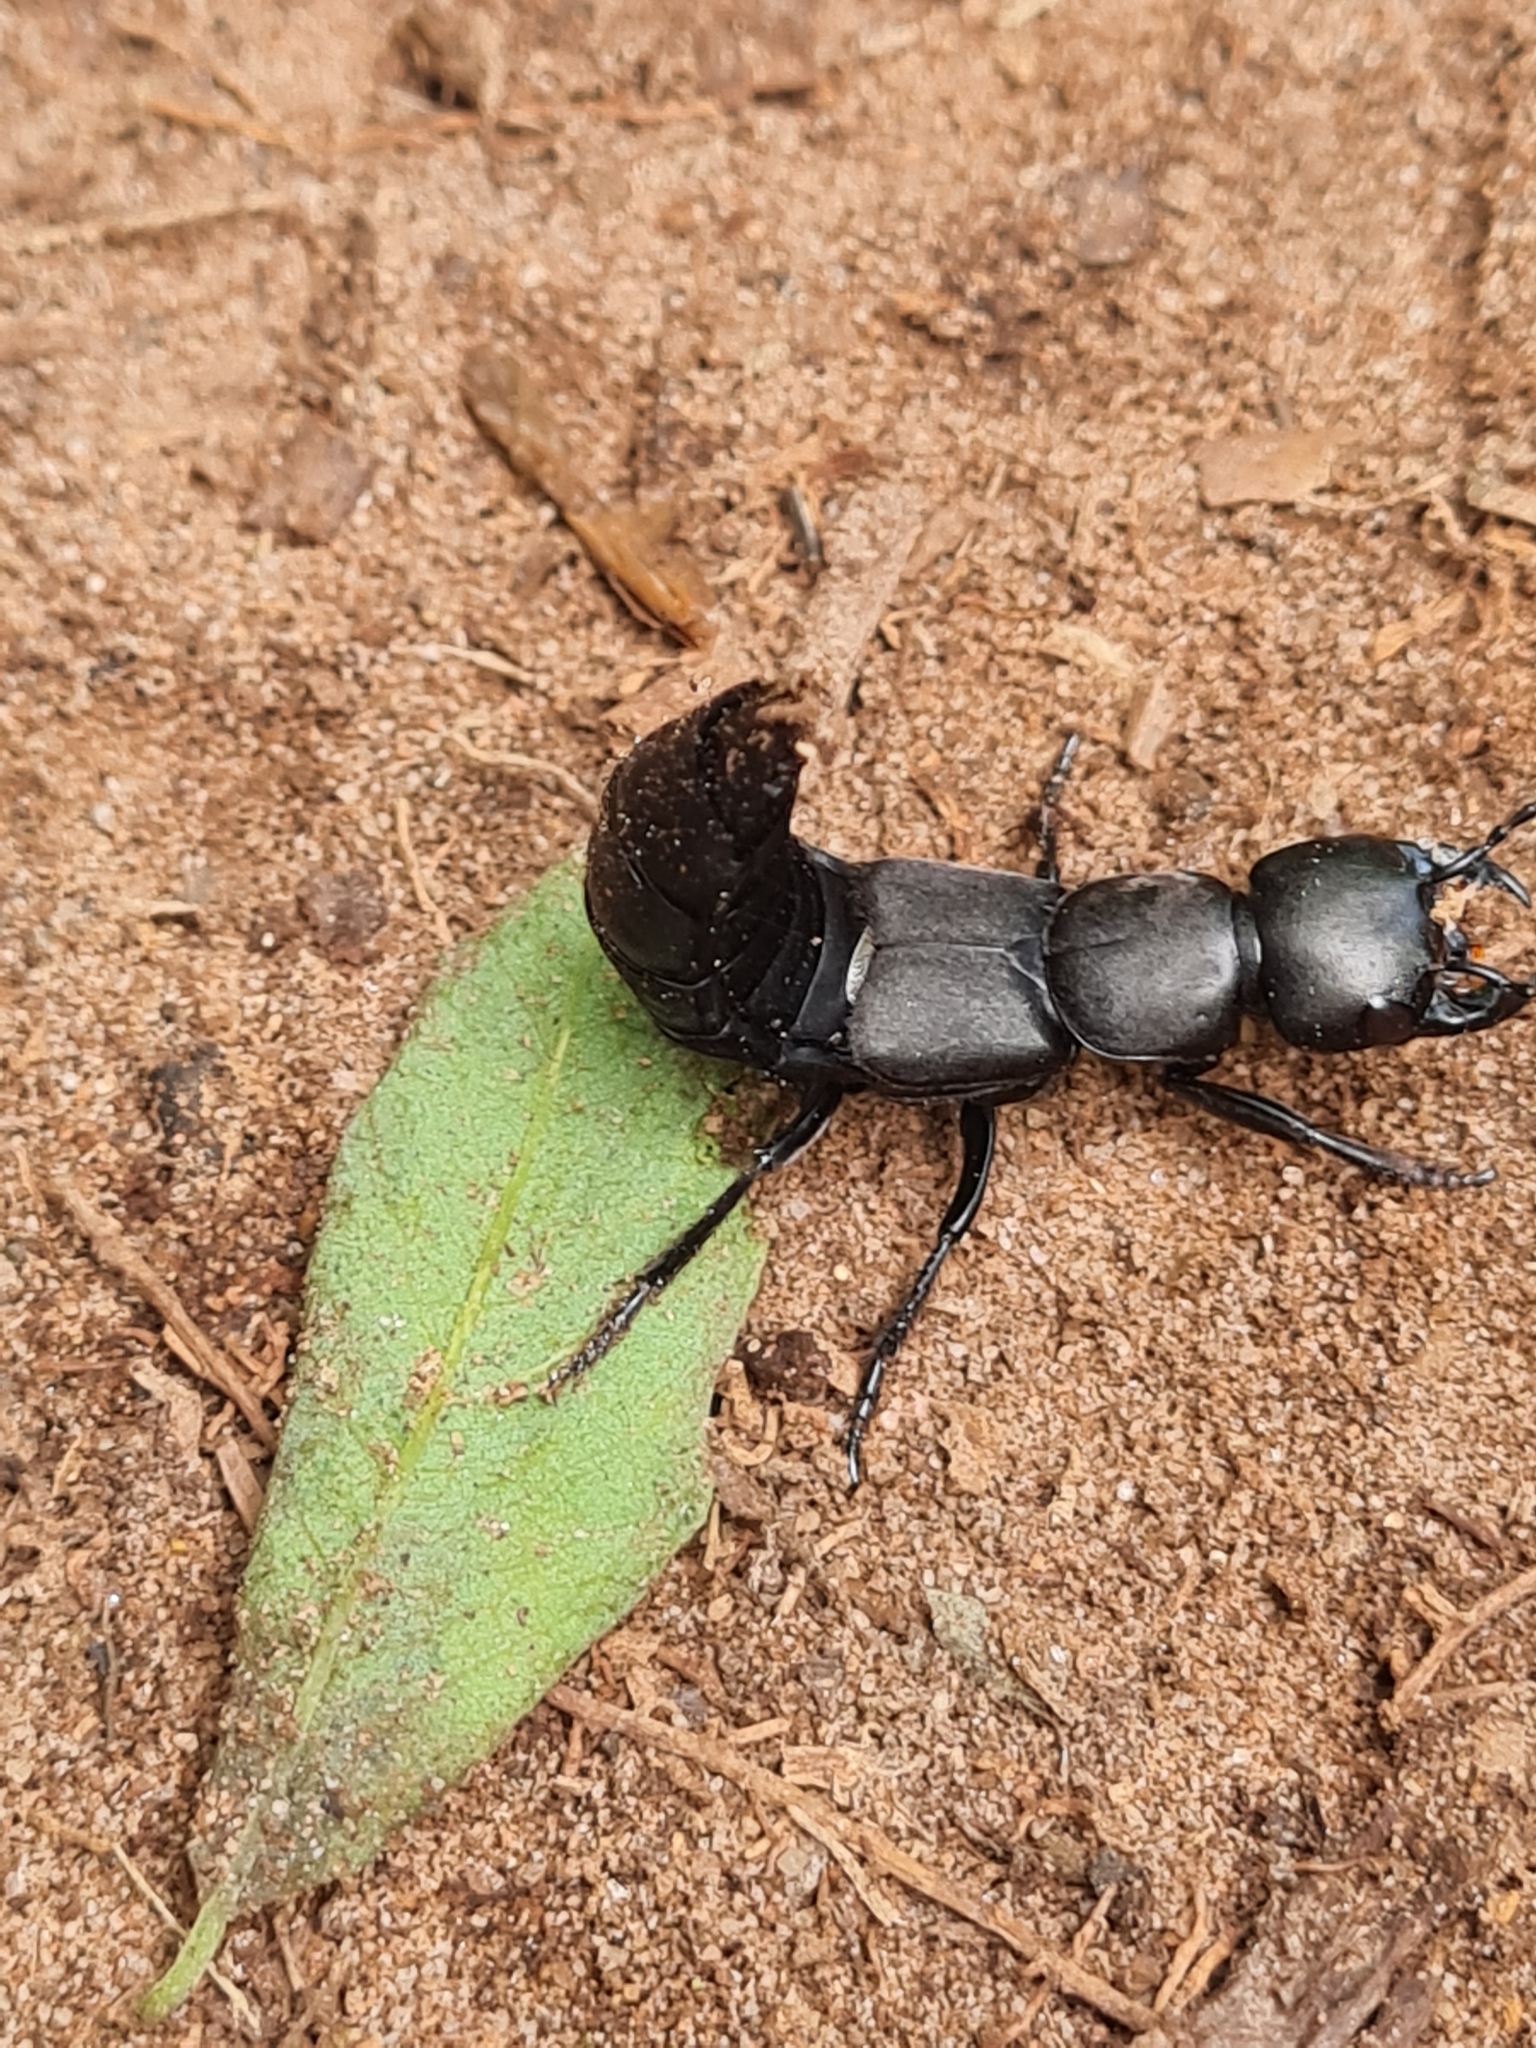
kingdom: Animalia
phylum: Arthropoda
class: Insecta
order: Coleoptera
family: Staphylinidae
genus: Ocypus
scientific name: Ocypus olens
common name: Devil's coach-horse
